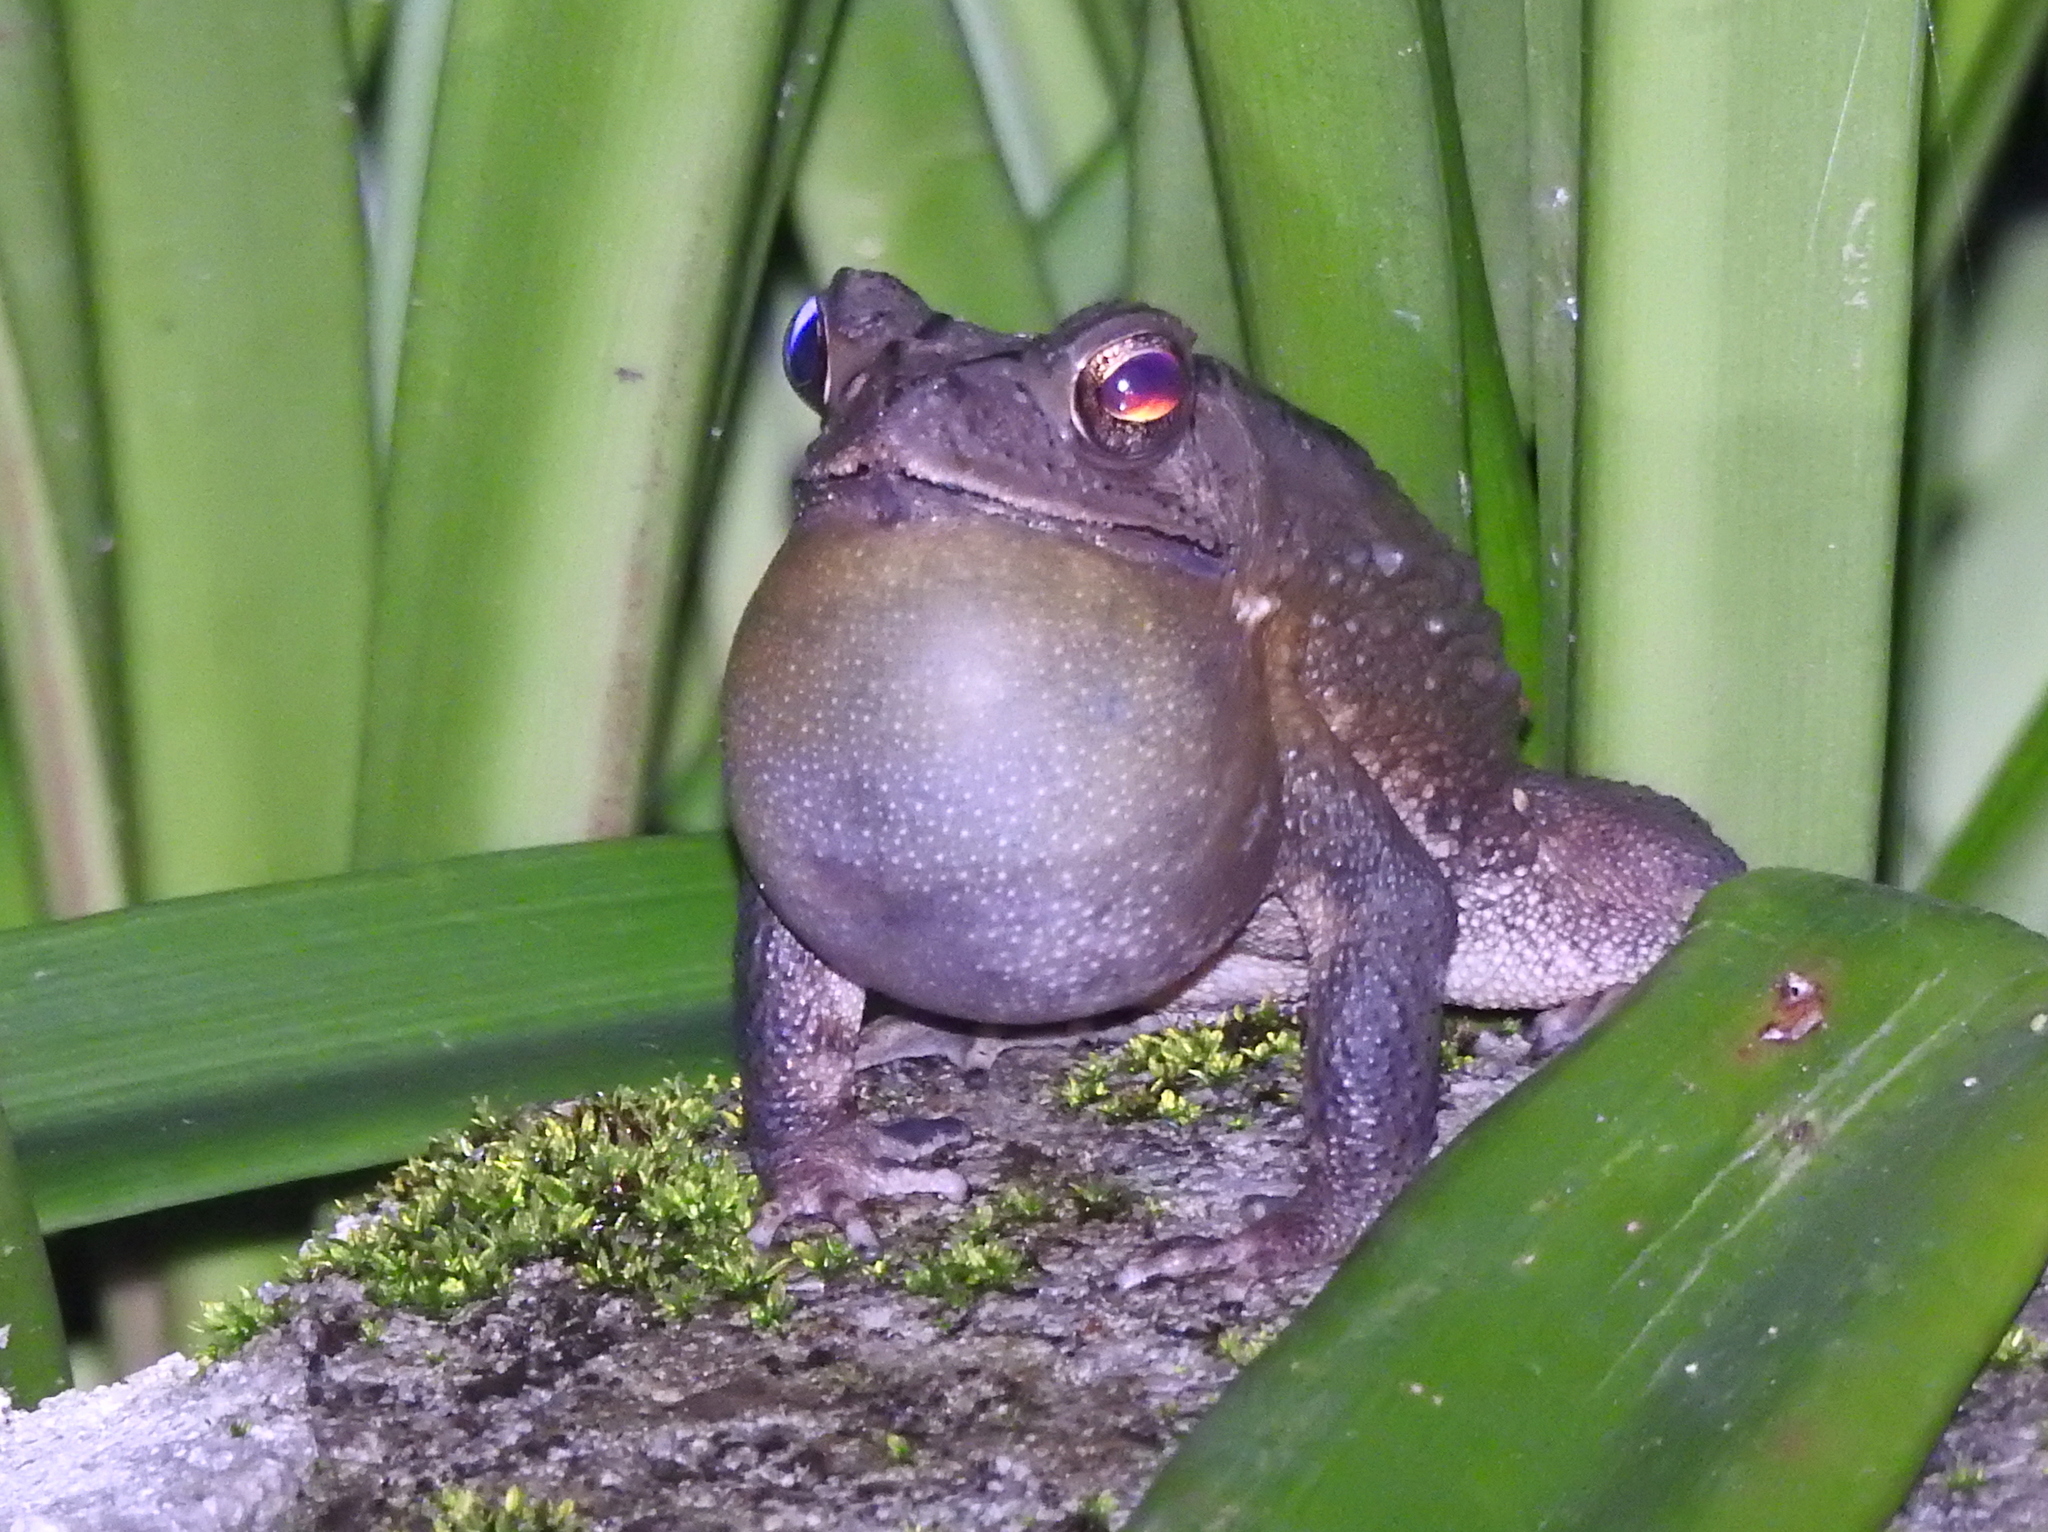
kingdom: Animalia
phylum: Chordata
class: Amphibia
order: Anura
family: Bufonidae
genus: Duttaphrynus
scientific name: Duttaphrynus melanostictus
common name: Common sunda toad
